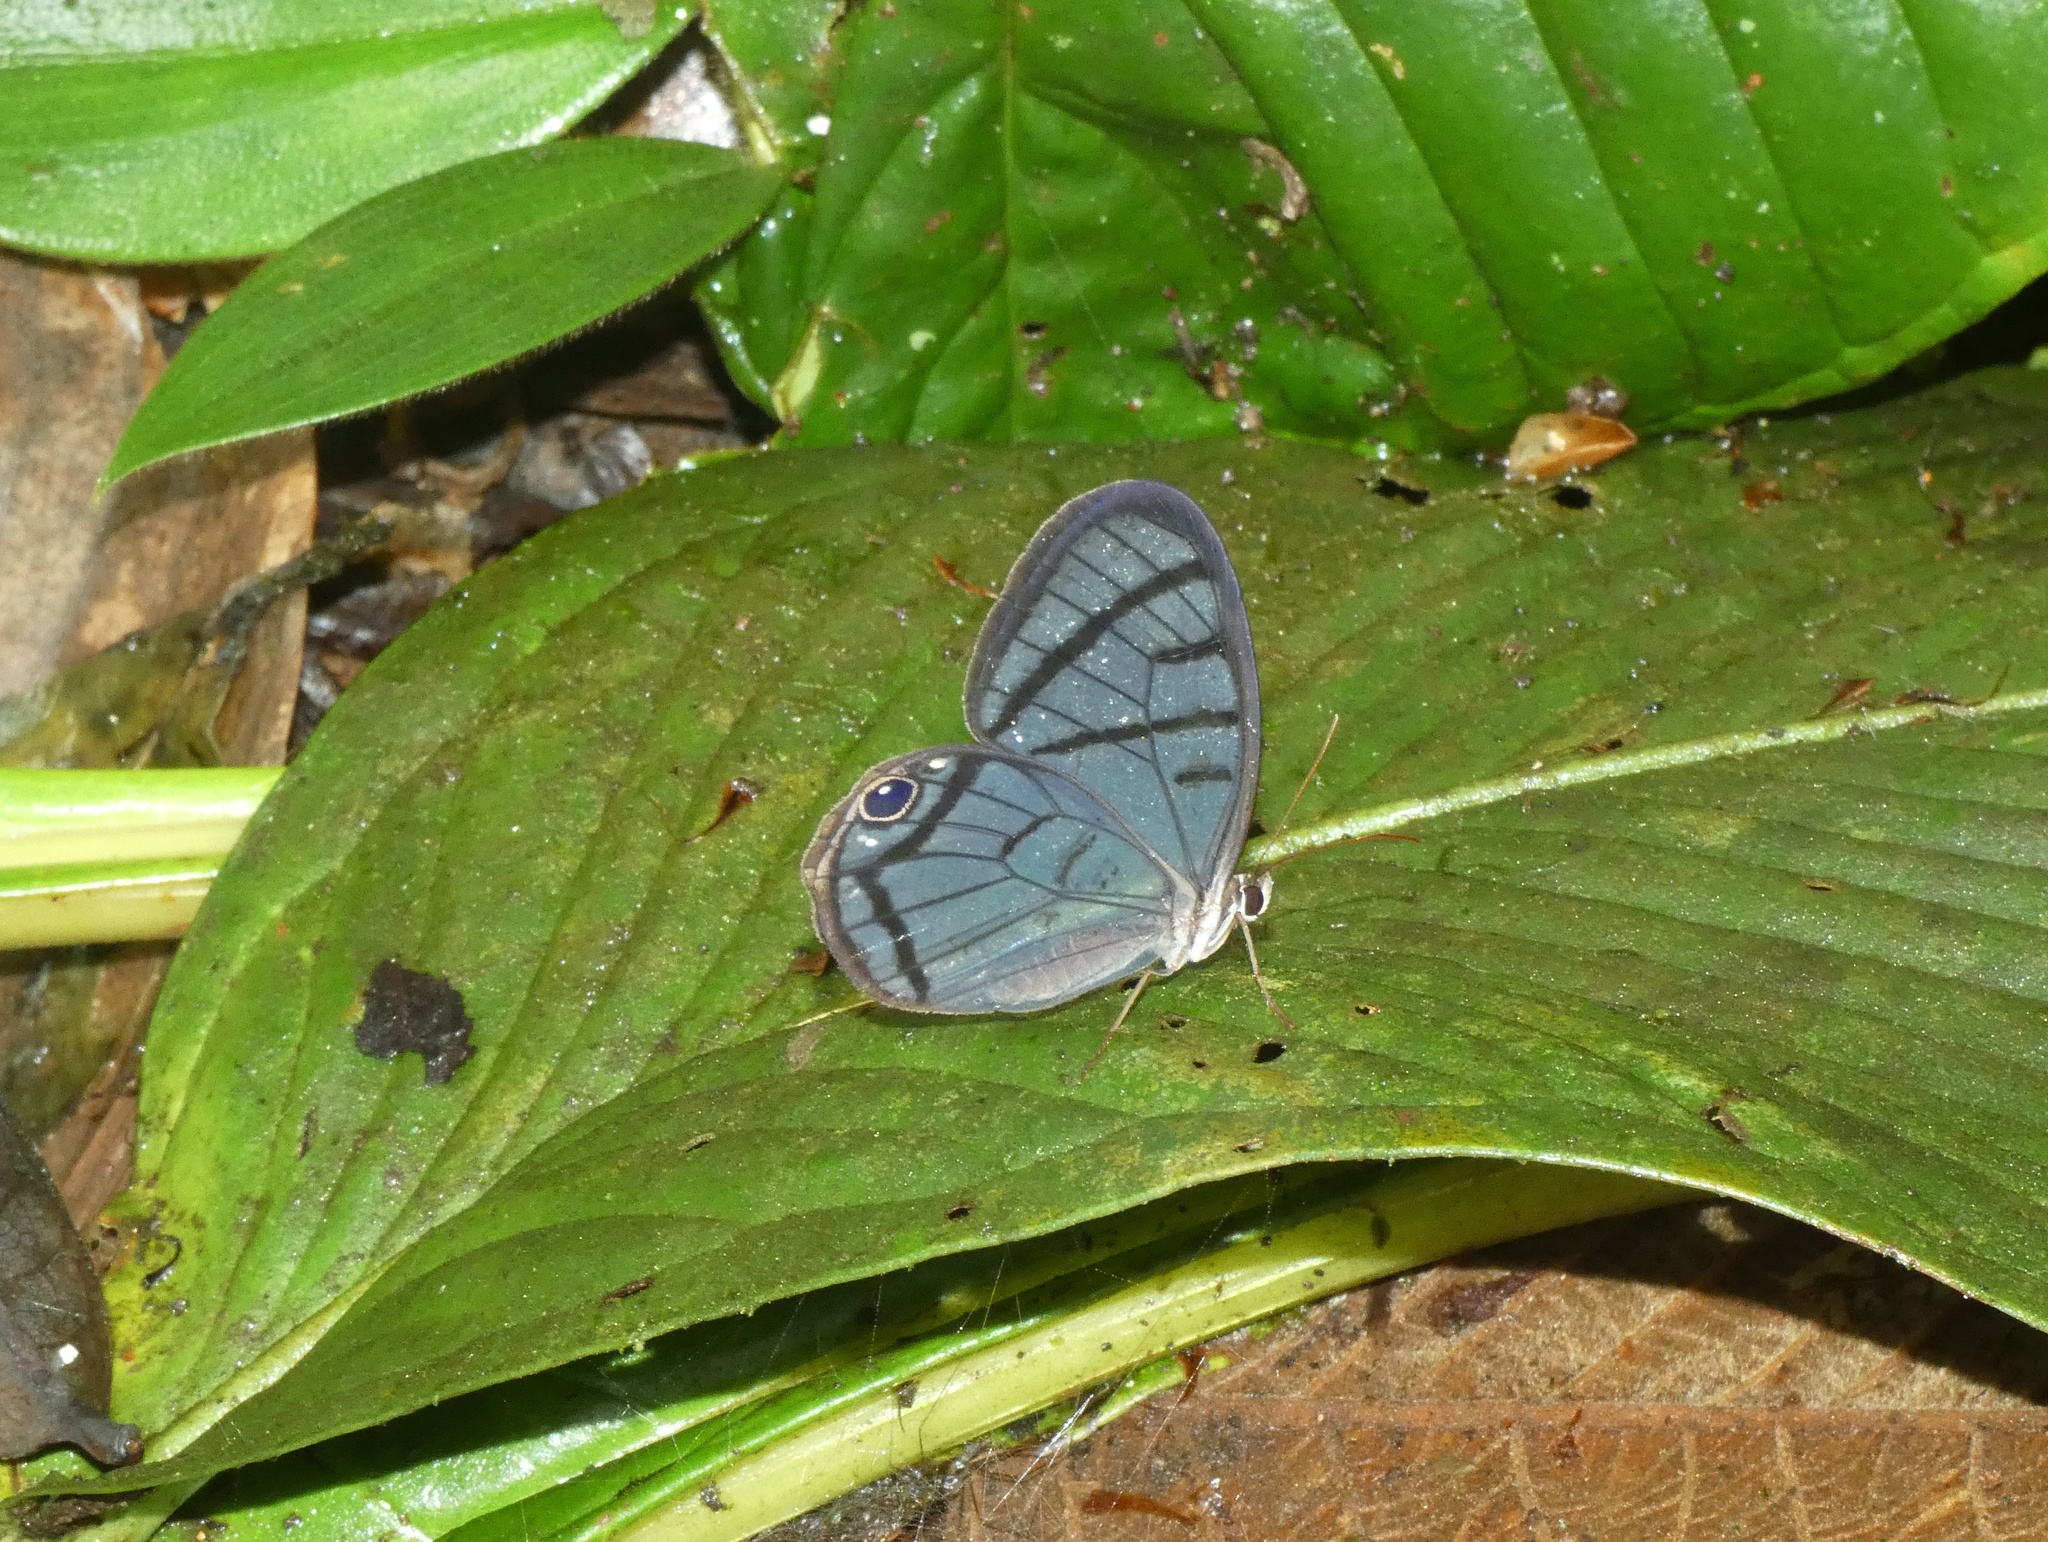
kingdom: Animalia
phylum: Arthropoda
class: Insecta
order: Lepidoptera
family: Nymphalidae
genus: Dulcedo
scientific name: Dulcedo polita
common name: Uncolored clearwing-satyr
